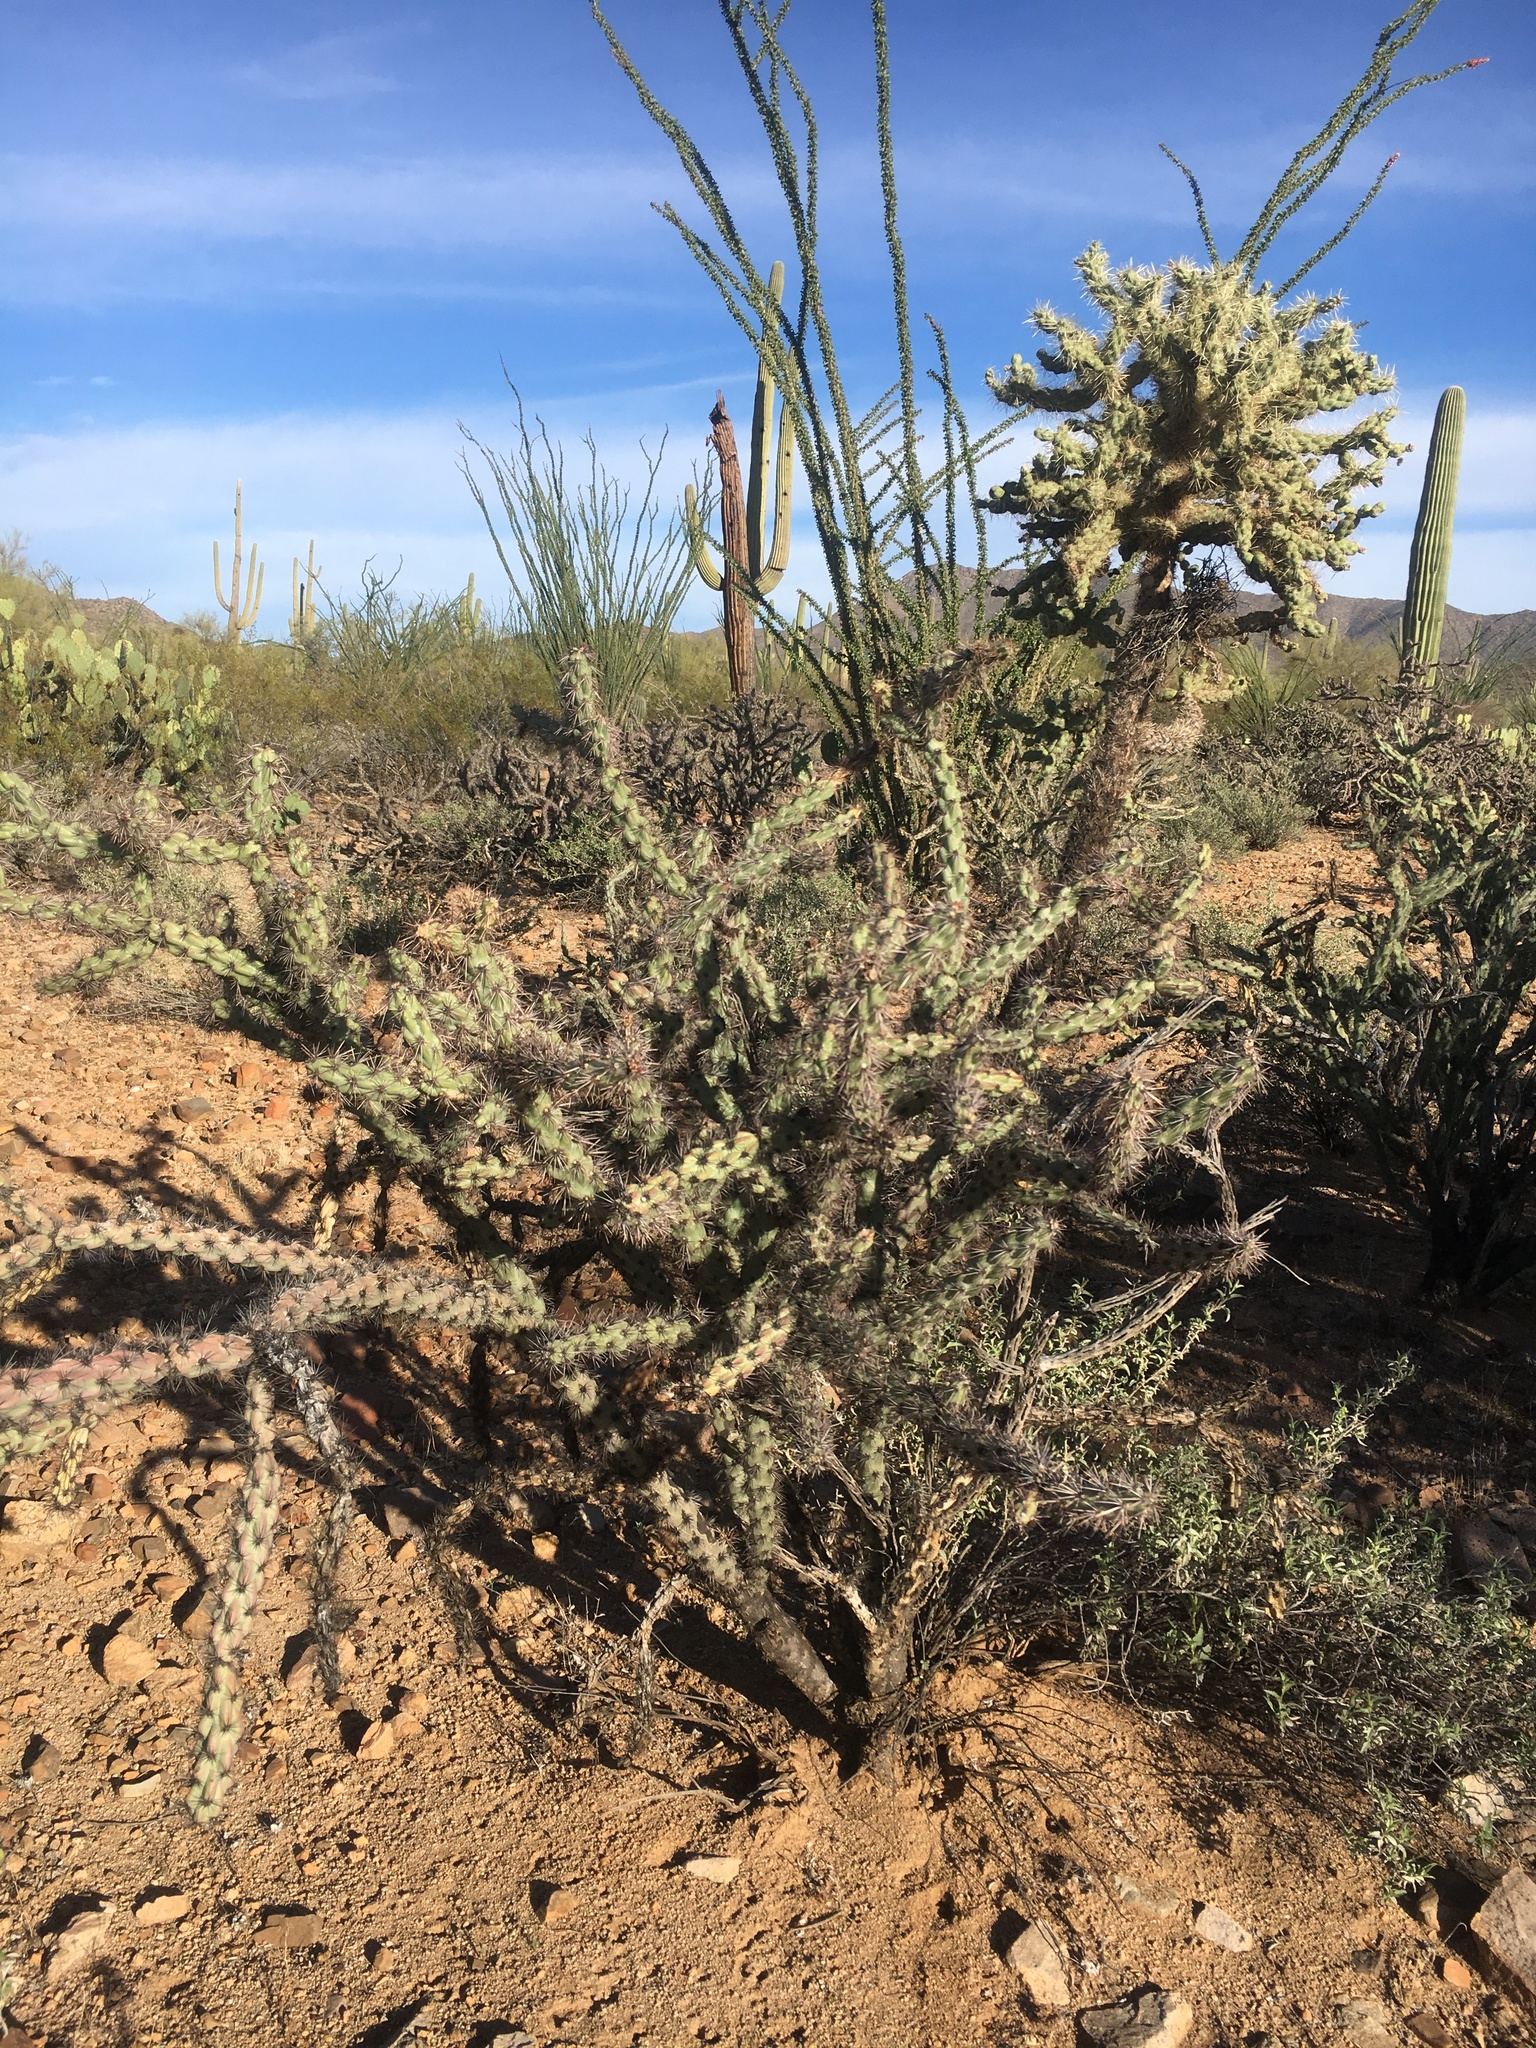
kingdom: Plantae
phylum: Tracheophyta
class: Magnoliopsida
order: Caryophyllales
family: Cactaceae
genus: Cylindropuntia
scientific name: Cylindropuntia acanthocarpa
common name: Buckhorn cholla
